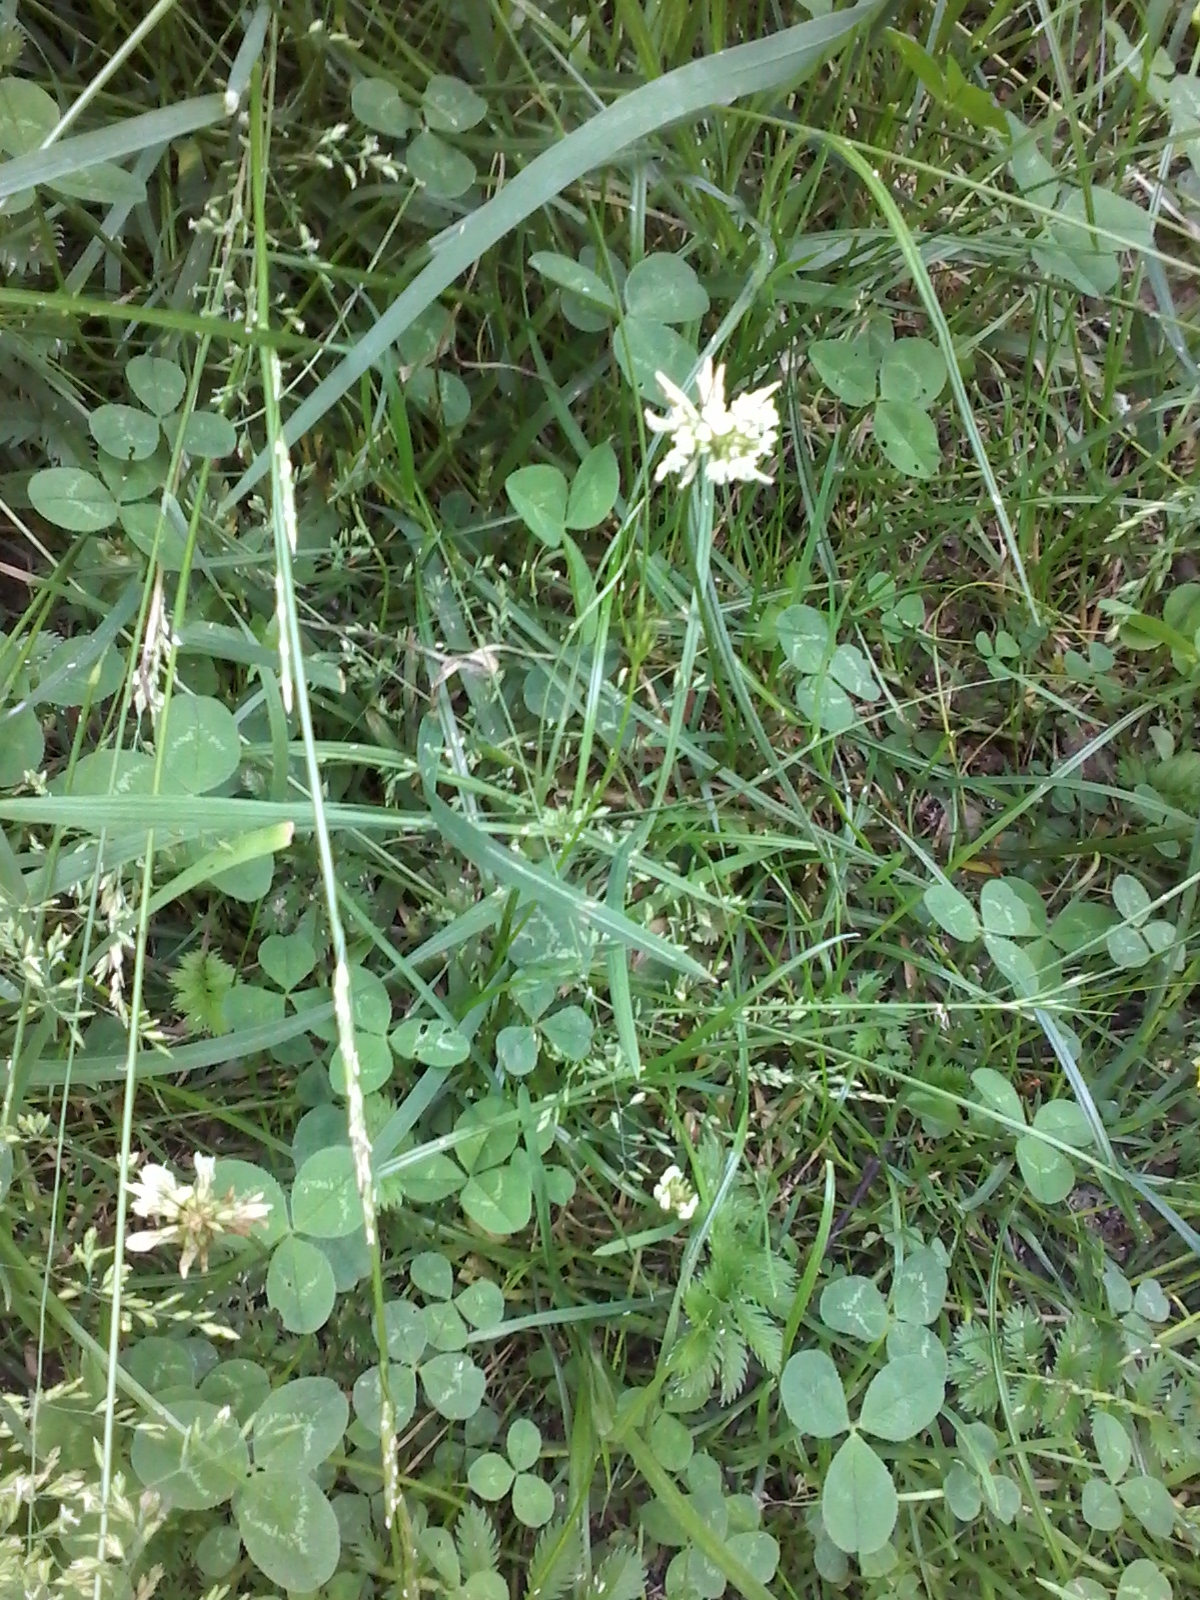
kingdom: Plantae
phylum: Tracheophyta
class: Magnoliopsida
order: Fabales
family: Fabaceae
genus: Trifolium
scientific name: Trifolium repens
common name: White clover
